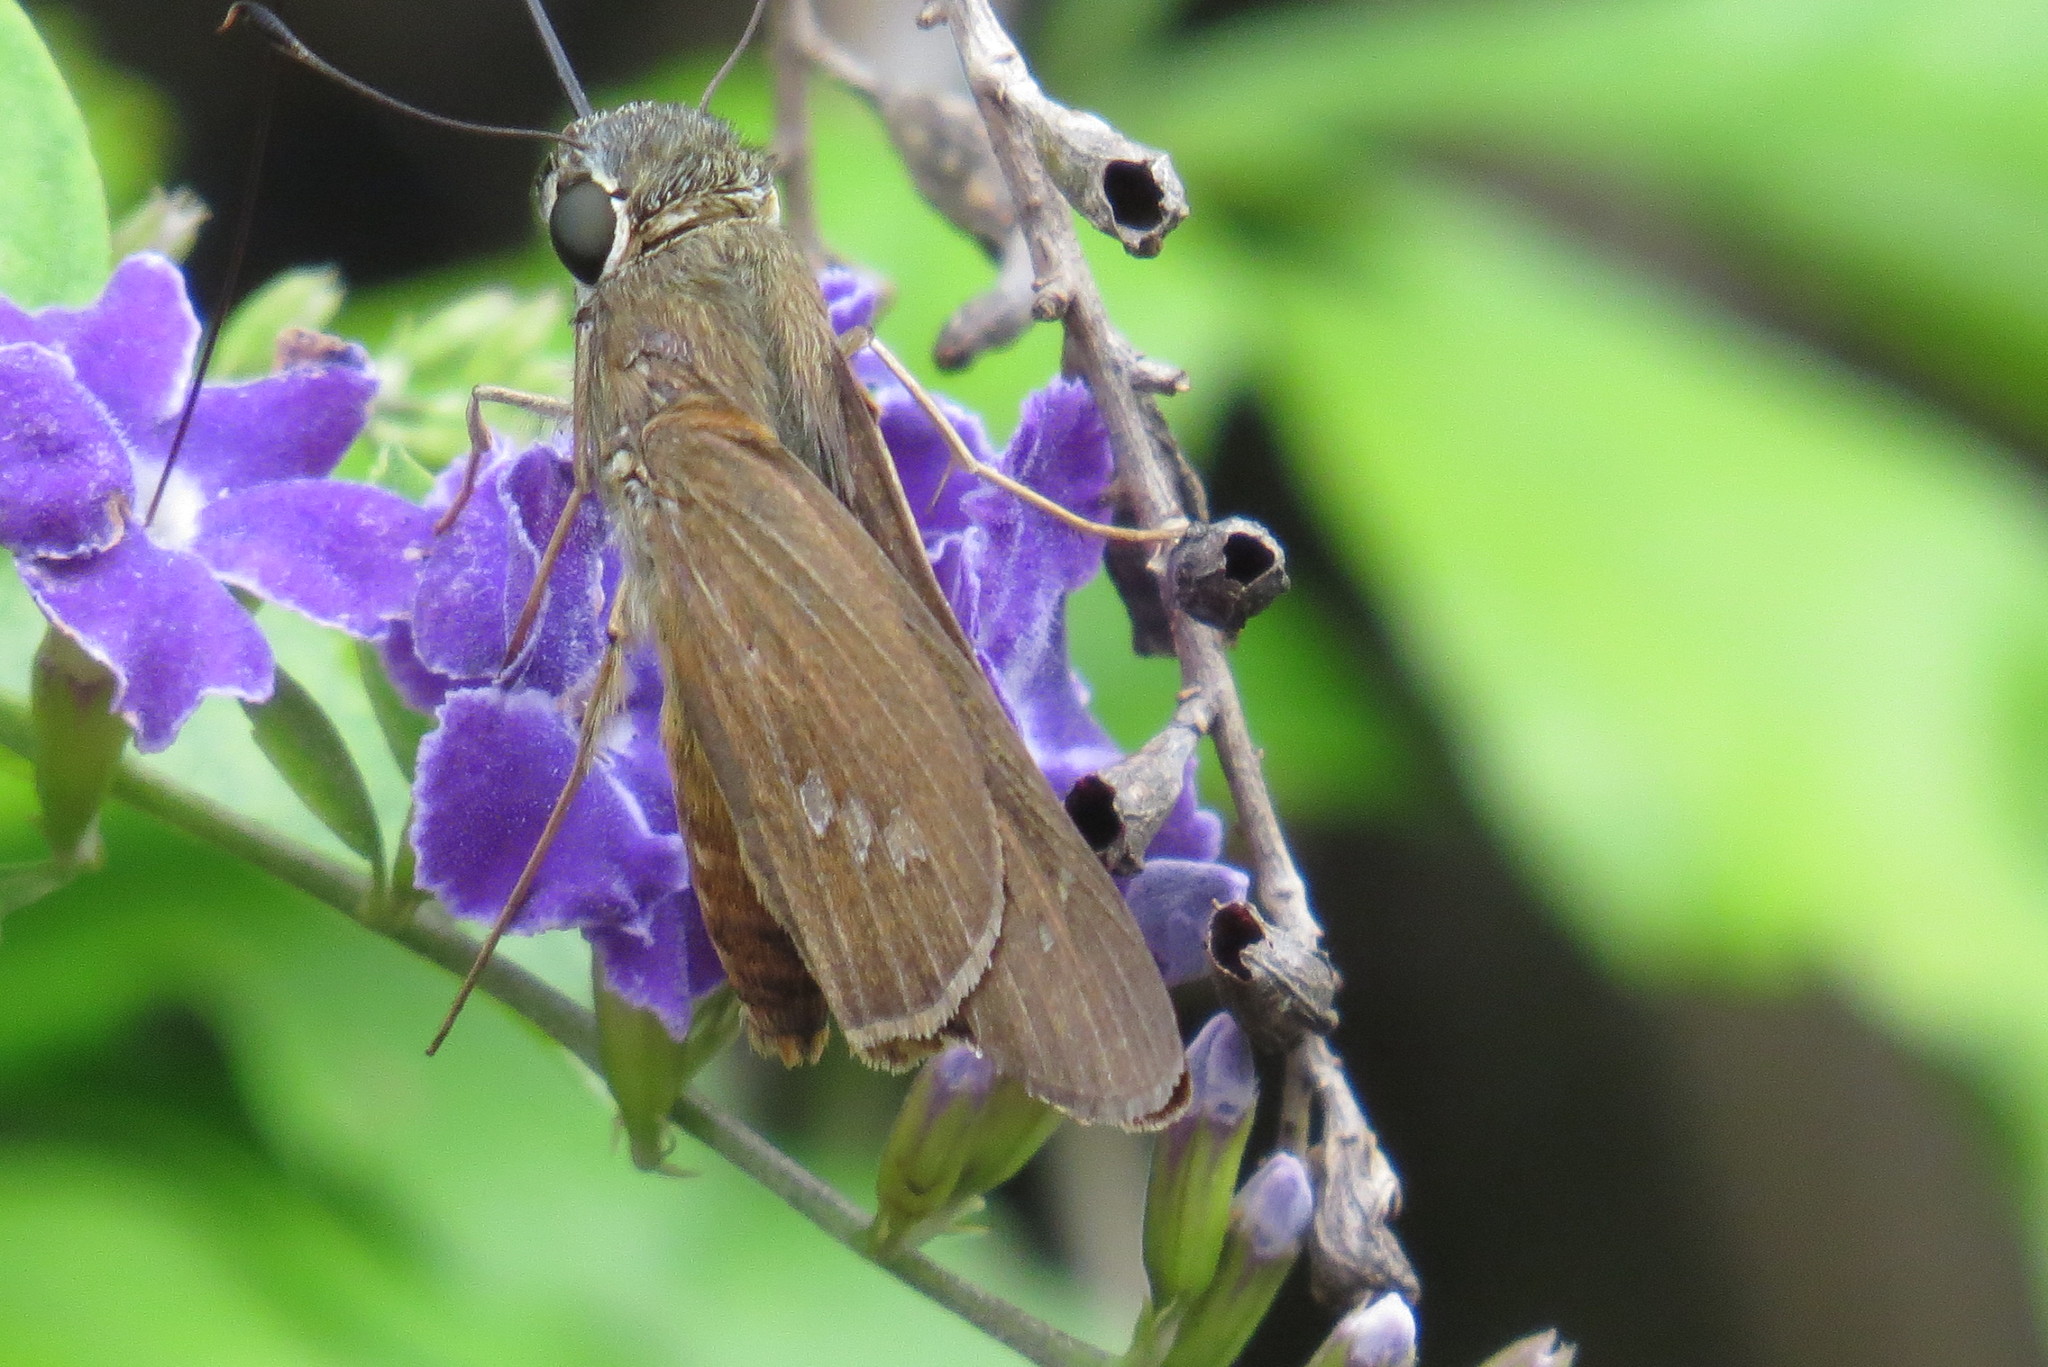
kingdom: Animalia
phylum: Arthropoda
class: Insecta
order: Lepidoptera
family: Hesperiidae
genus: Calpodes
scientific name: Calpodes ethlius
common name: Brazilian skipper
